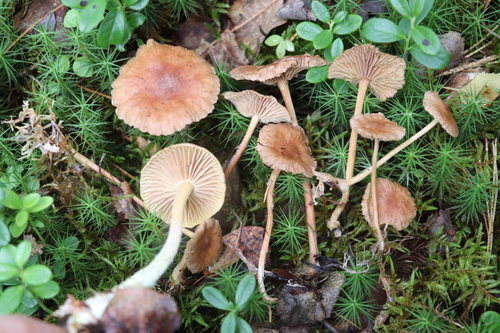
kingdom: Fungi
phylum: Basidiomycota
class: Agaricomycetes
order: Agaricales
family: Omphalotaceae
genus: Collybiopsis
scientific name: Collybiopsis
